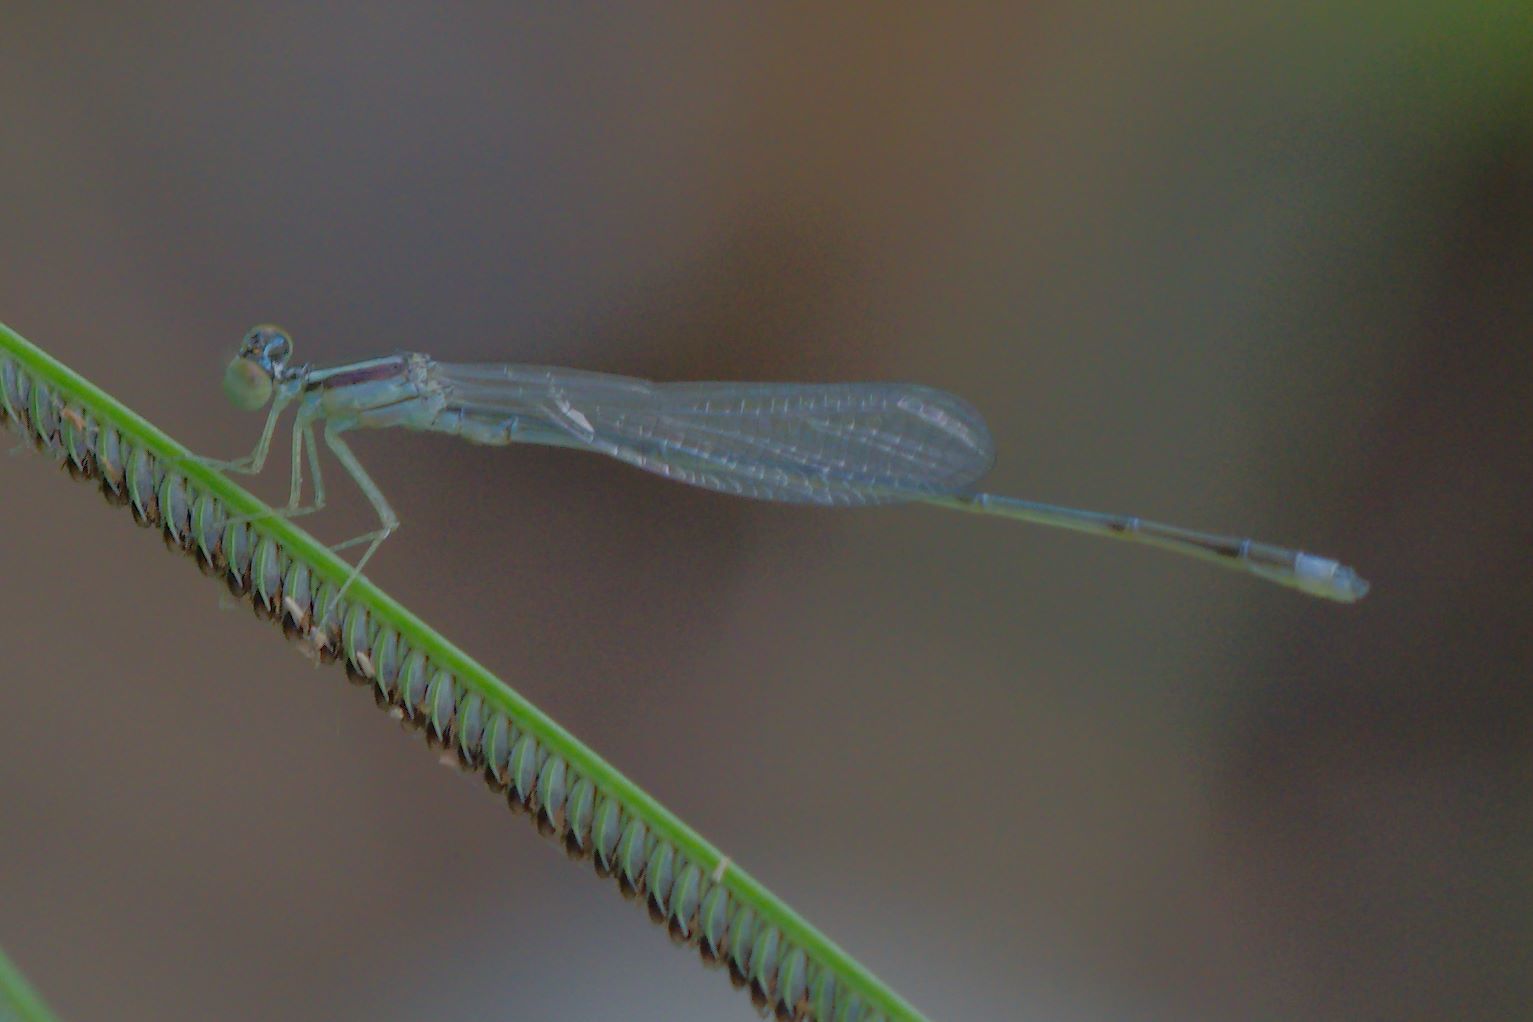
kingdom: Animalia
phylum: Arthropoda
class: Insecta
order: Odonata
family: Coenagrionidae
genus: Enallagma
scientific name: Enallagma pollutum
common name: Florida bluet
